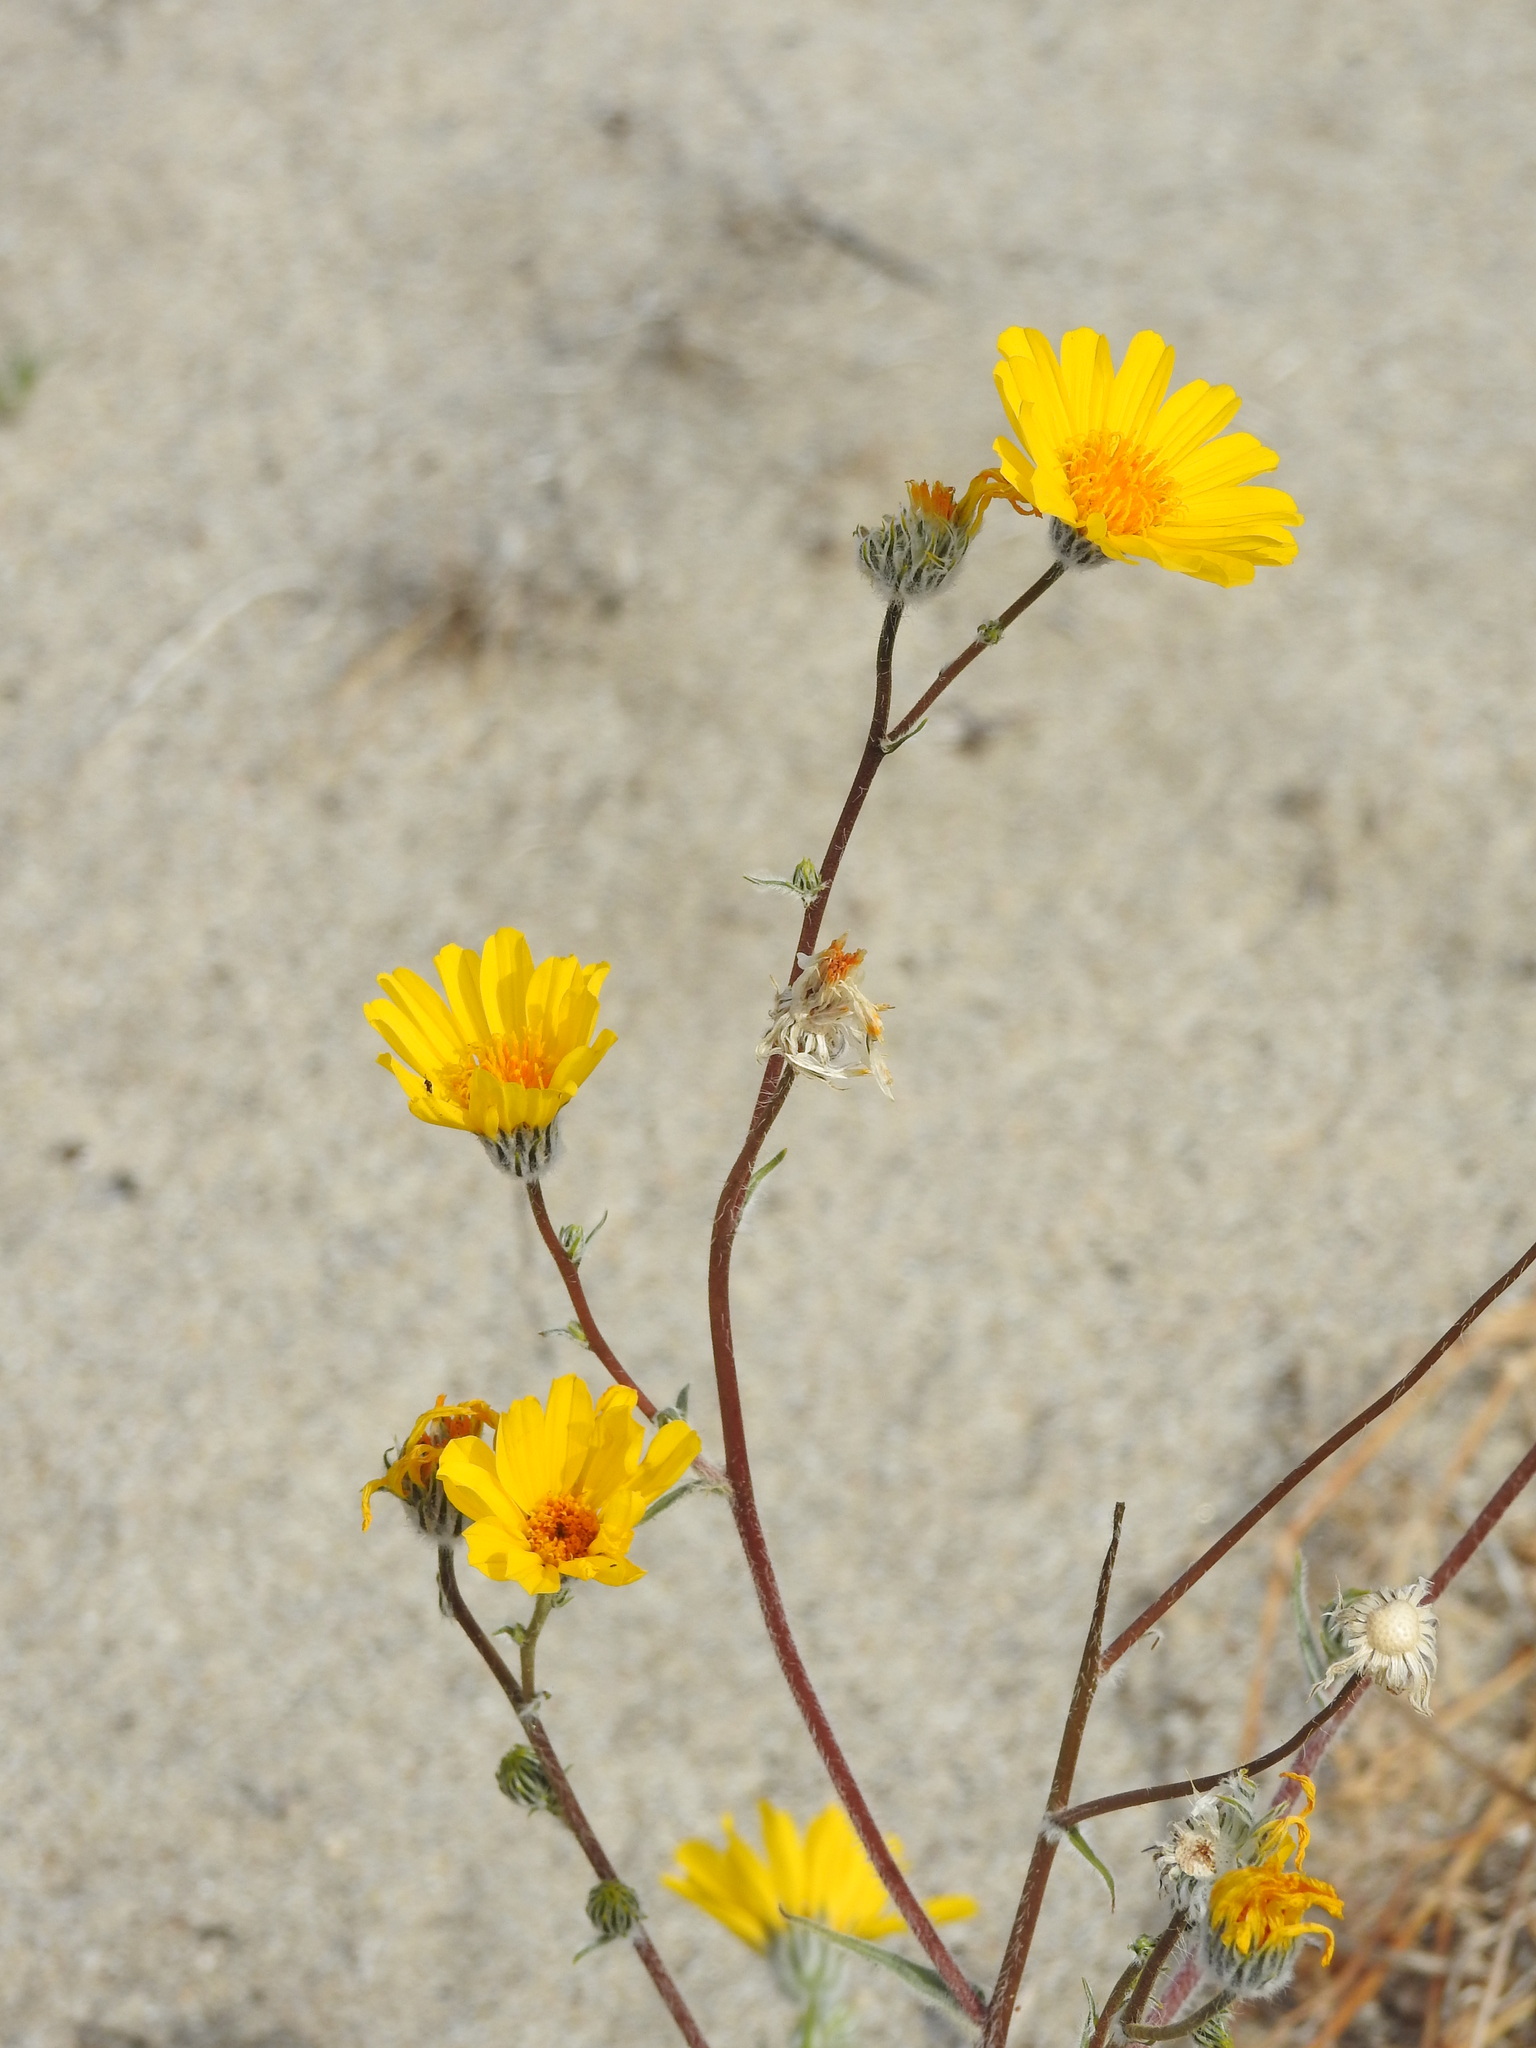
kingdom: Plantae
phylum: Tracheophyta
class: Magnoliopsida
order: Asterales
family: Asteraceae
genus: Geraea
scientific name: Geraea canescens
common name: Desert-gold
